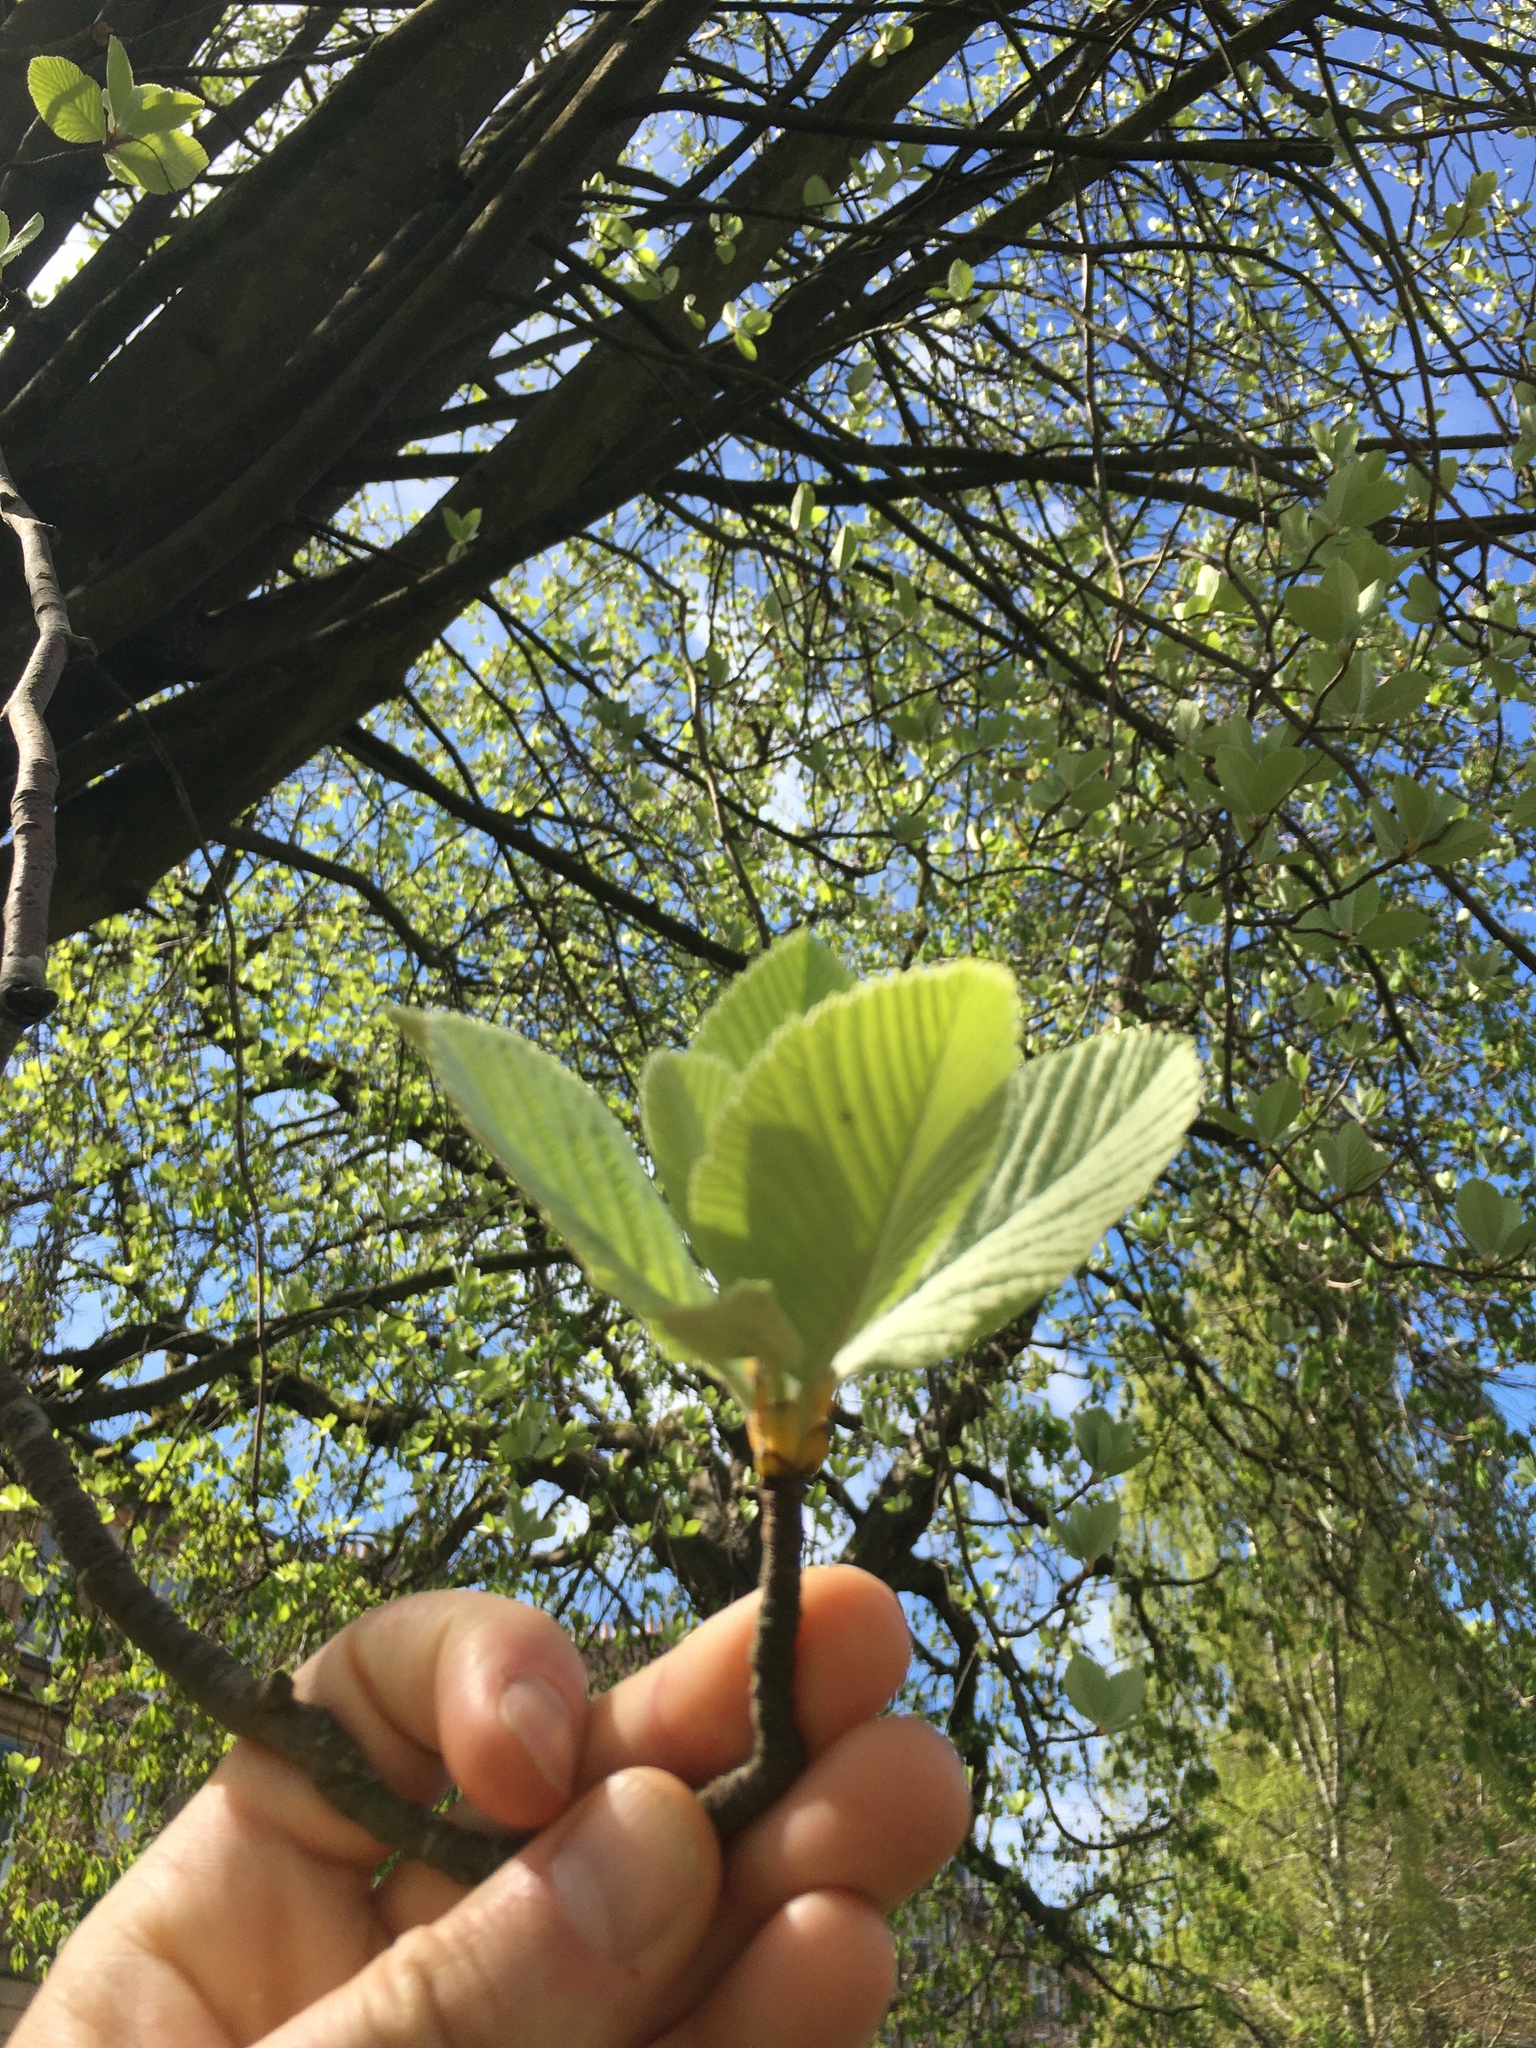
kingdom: Plantae
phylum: Tracheophyta
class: Magnoliopsida
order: Rosales
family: Rosaceae
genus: Aria
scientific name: Aria edulis
